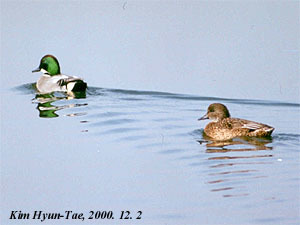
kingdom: Animalia
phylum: Chordata
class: Aves
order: Anseriformes
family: Anatidae
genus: Mareca
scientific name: Mareca falcata
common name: Falcated duck
